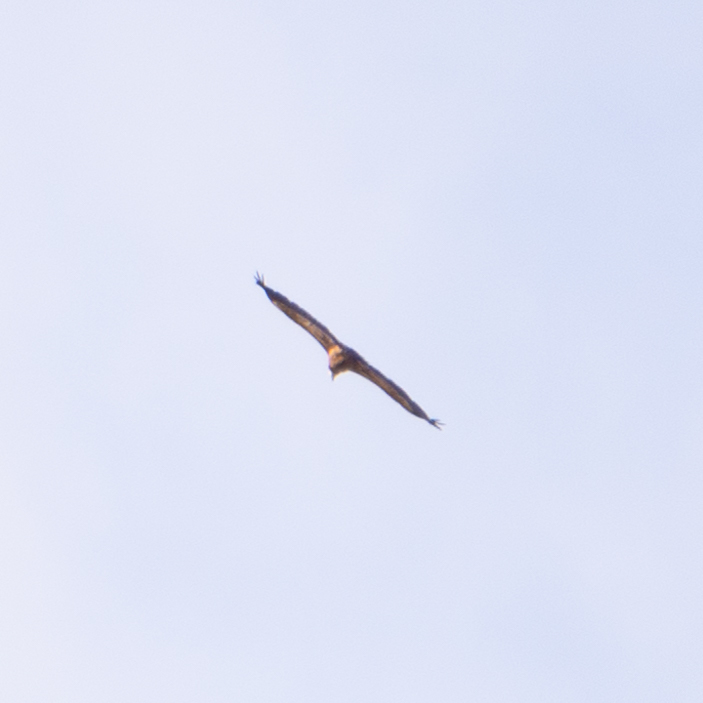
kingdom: Animalia
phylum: Chordata
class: Aves
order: Accipitriformes
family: Accipitridae
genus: Gyps
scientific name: Gyps fulvus
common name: Griffon vulture
